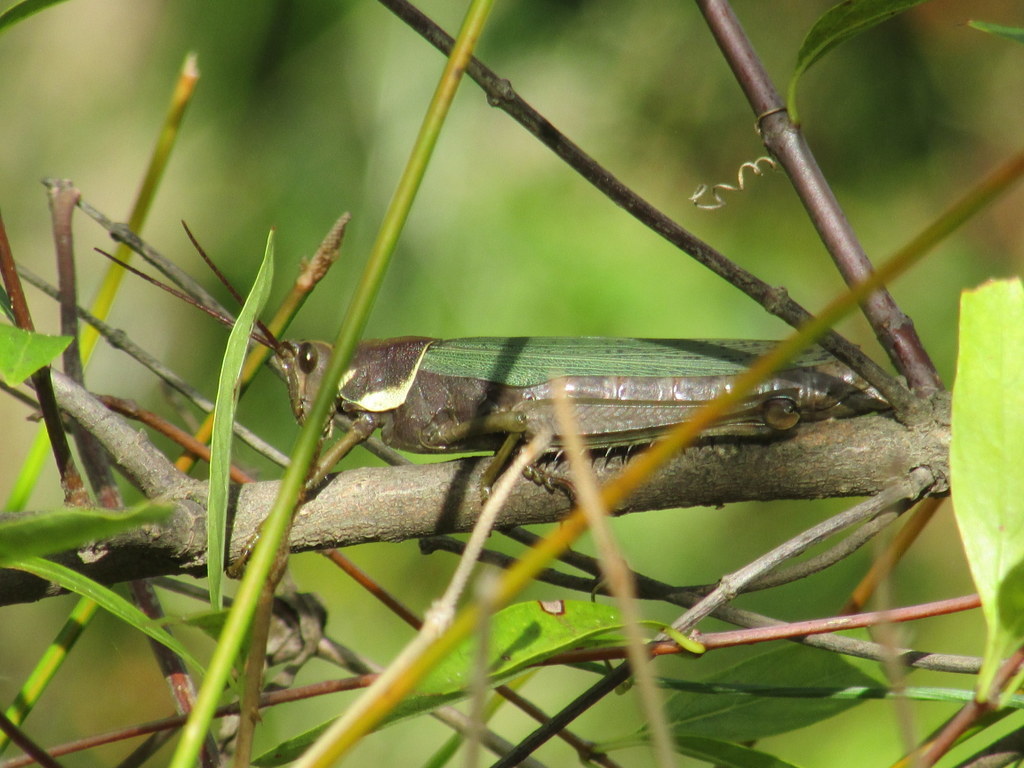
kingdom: Animalia
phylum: Arthropoda
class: Insecta
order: Orthoptera
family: Romaleidae
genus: Coryacris
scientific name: Coryacris angustipennis
